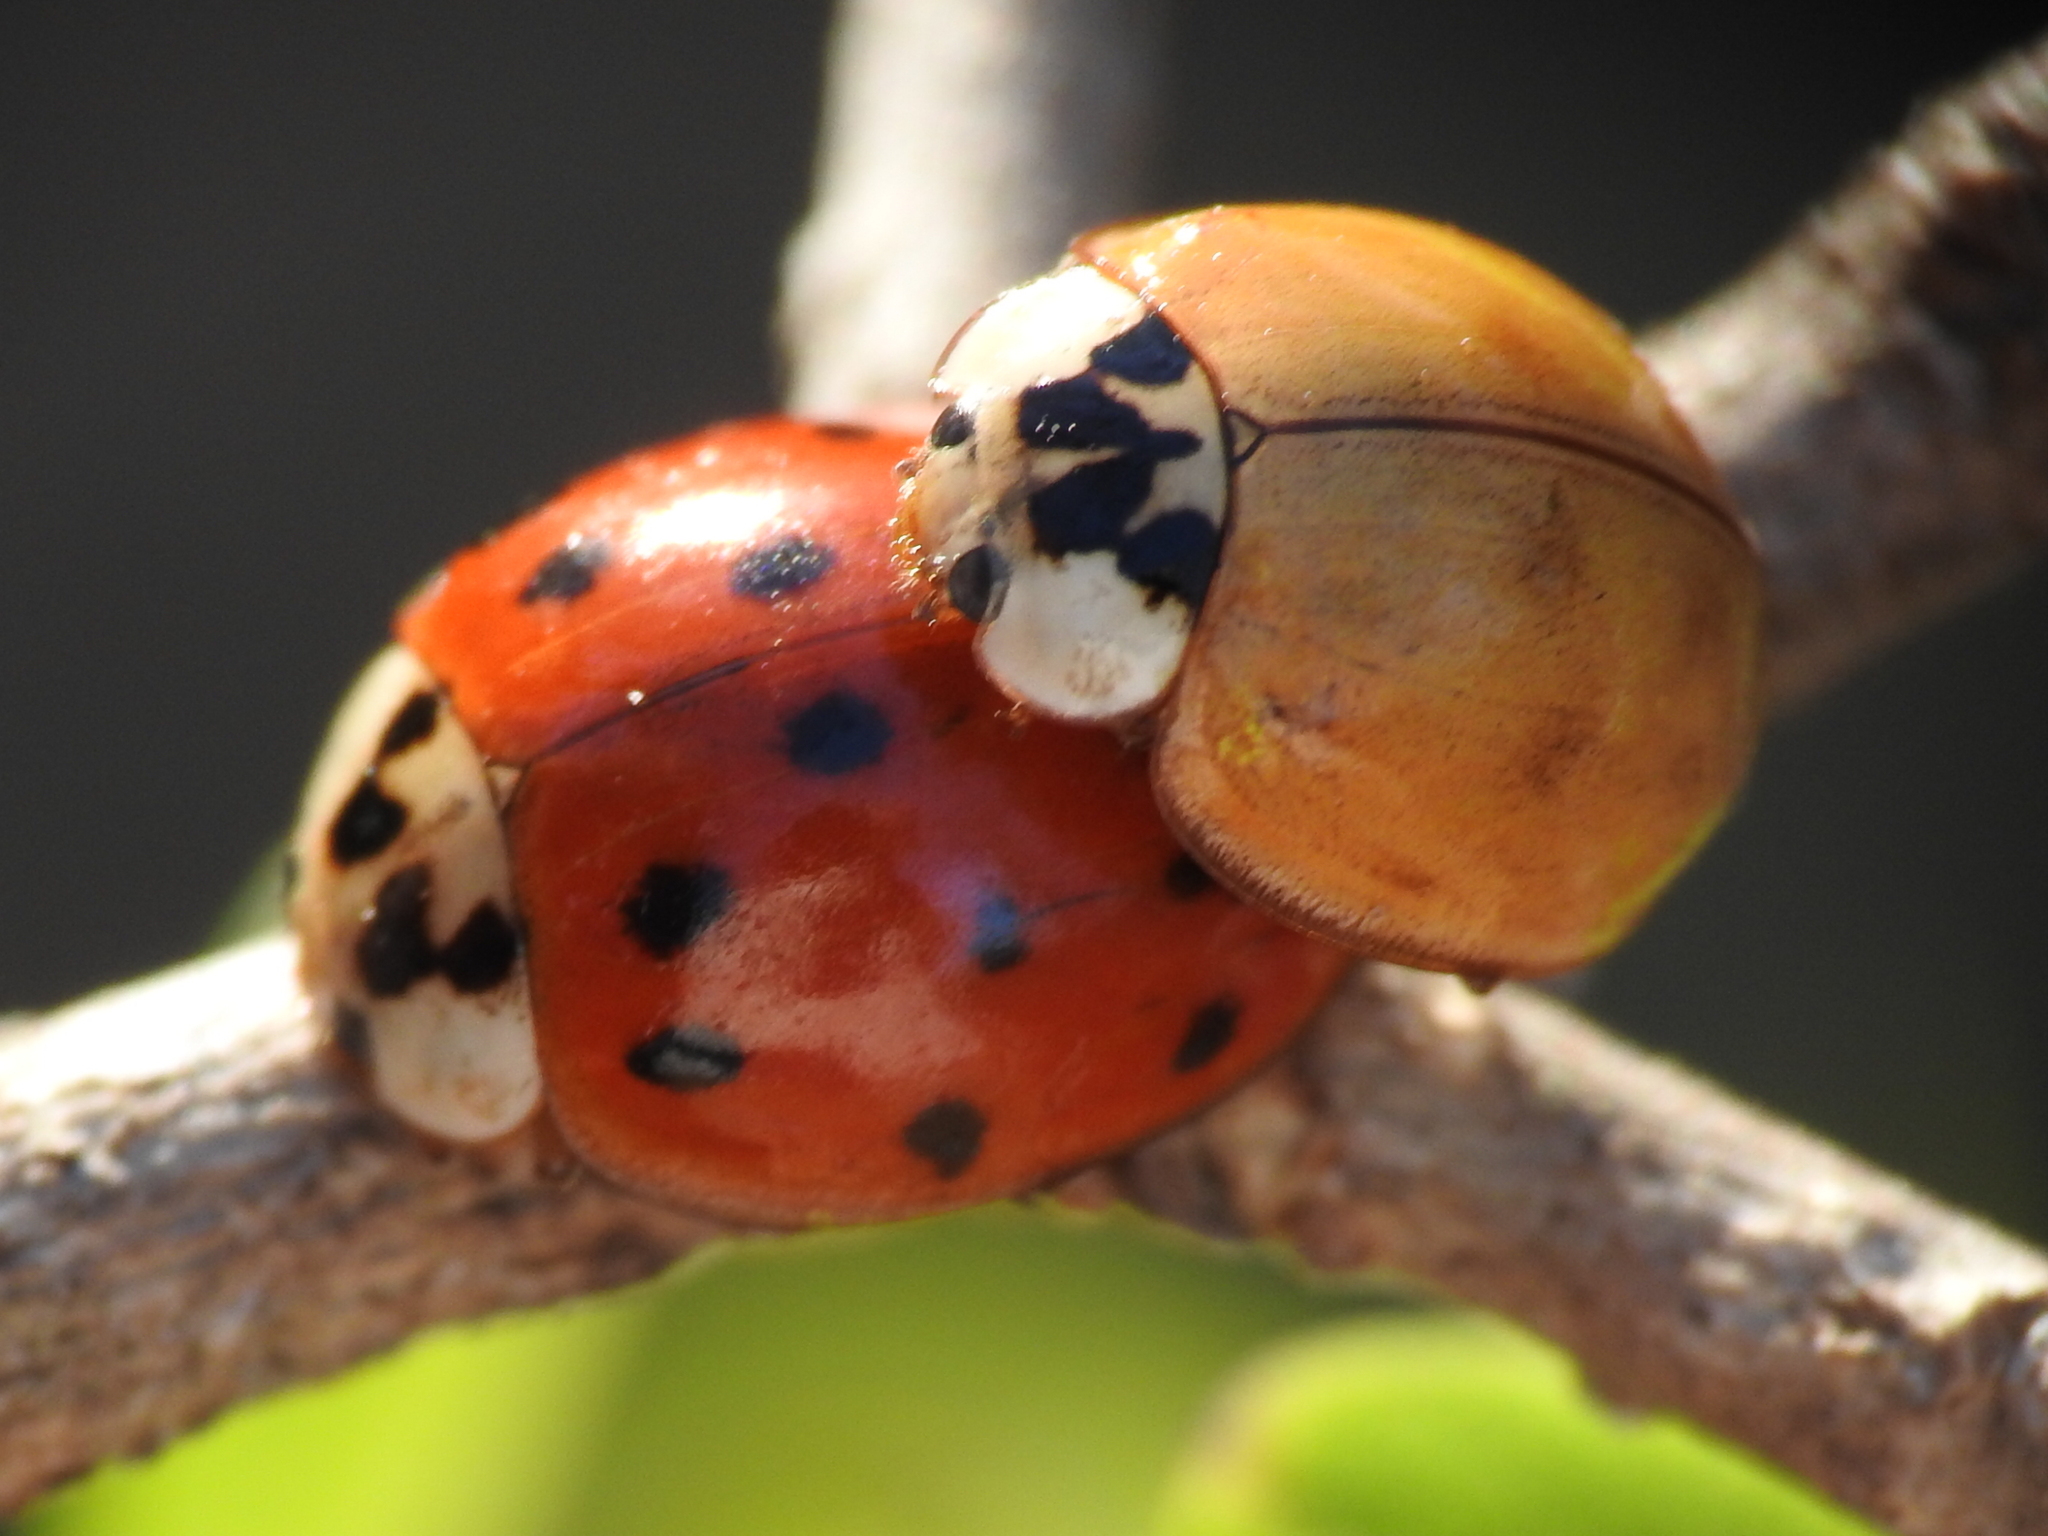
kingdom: Animalia
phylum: Arthropoda
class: Insecta
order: Coleoptera
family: Coccinellidae
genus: Harmonia
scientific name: Harmonia axyridis
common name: Harlequin ladybird
